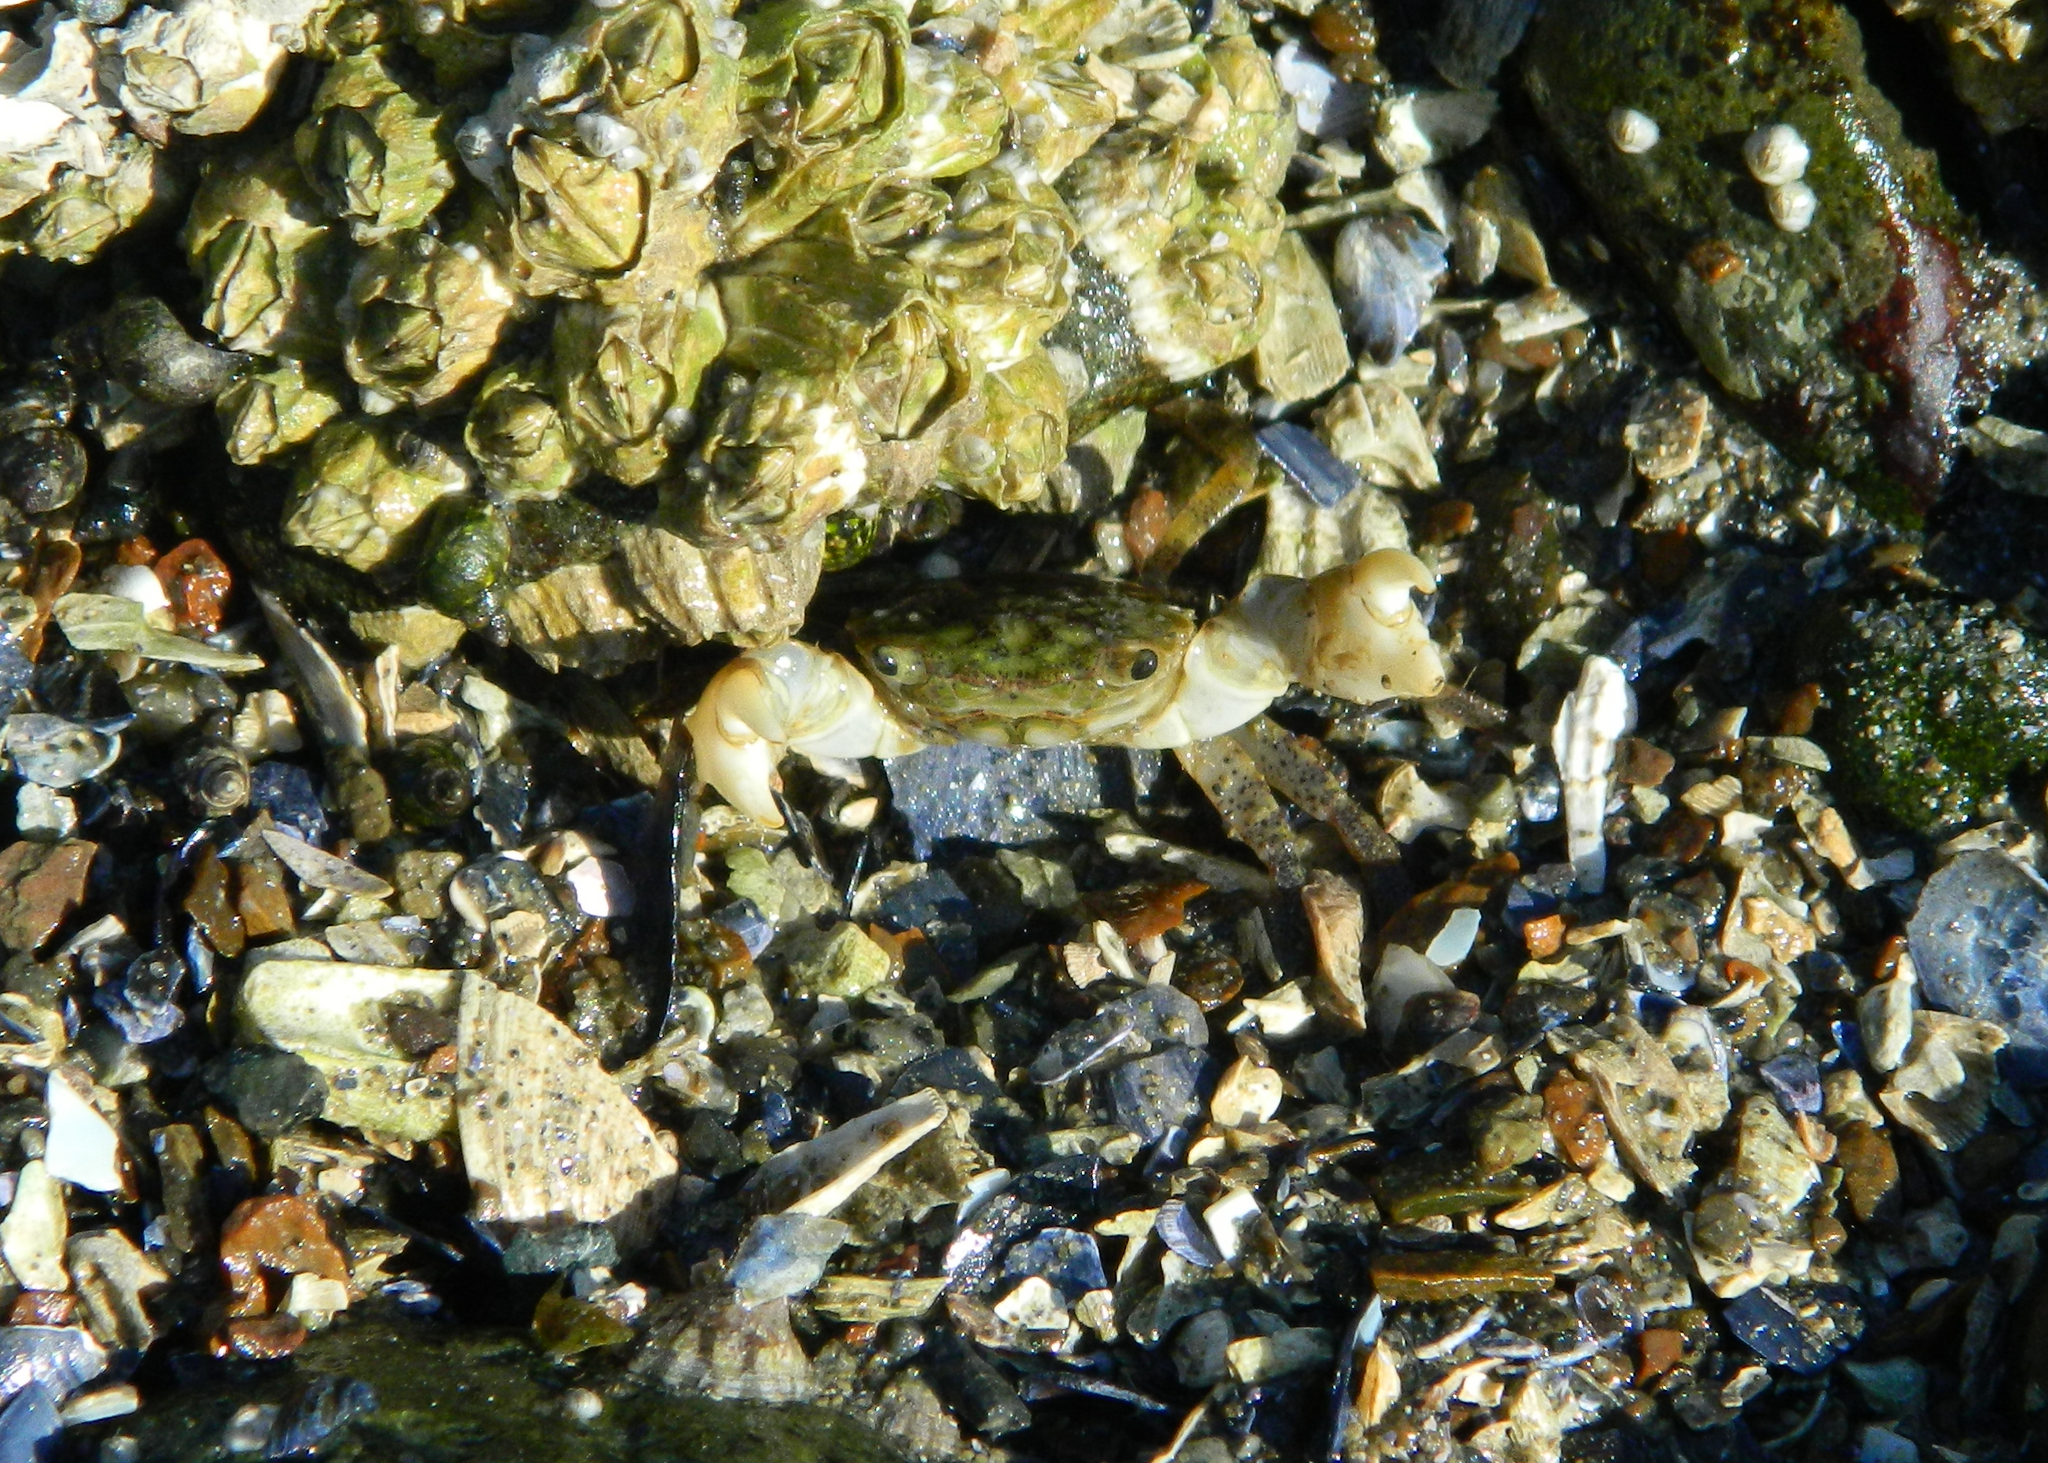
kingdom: Animalia
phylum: Arthropoda
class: Malacostraca
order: Decapoda
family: Varunidae
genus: Hemigrapsus
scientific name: Hemigrapsus oregonensis
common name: Yellow shore crab
